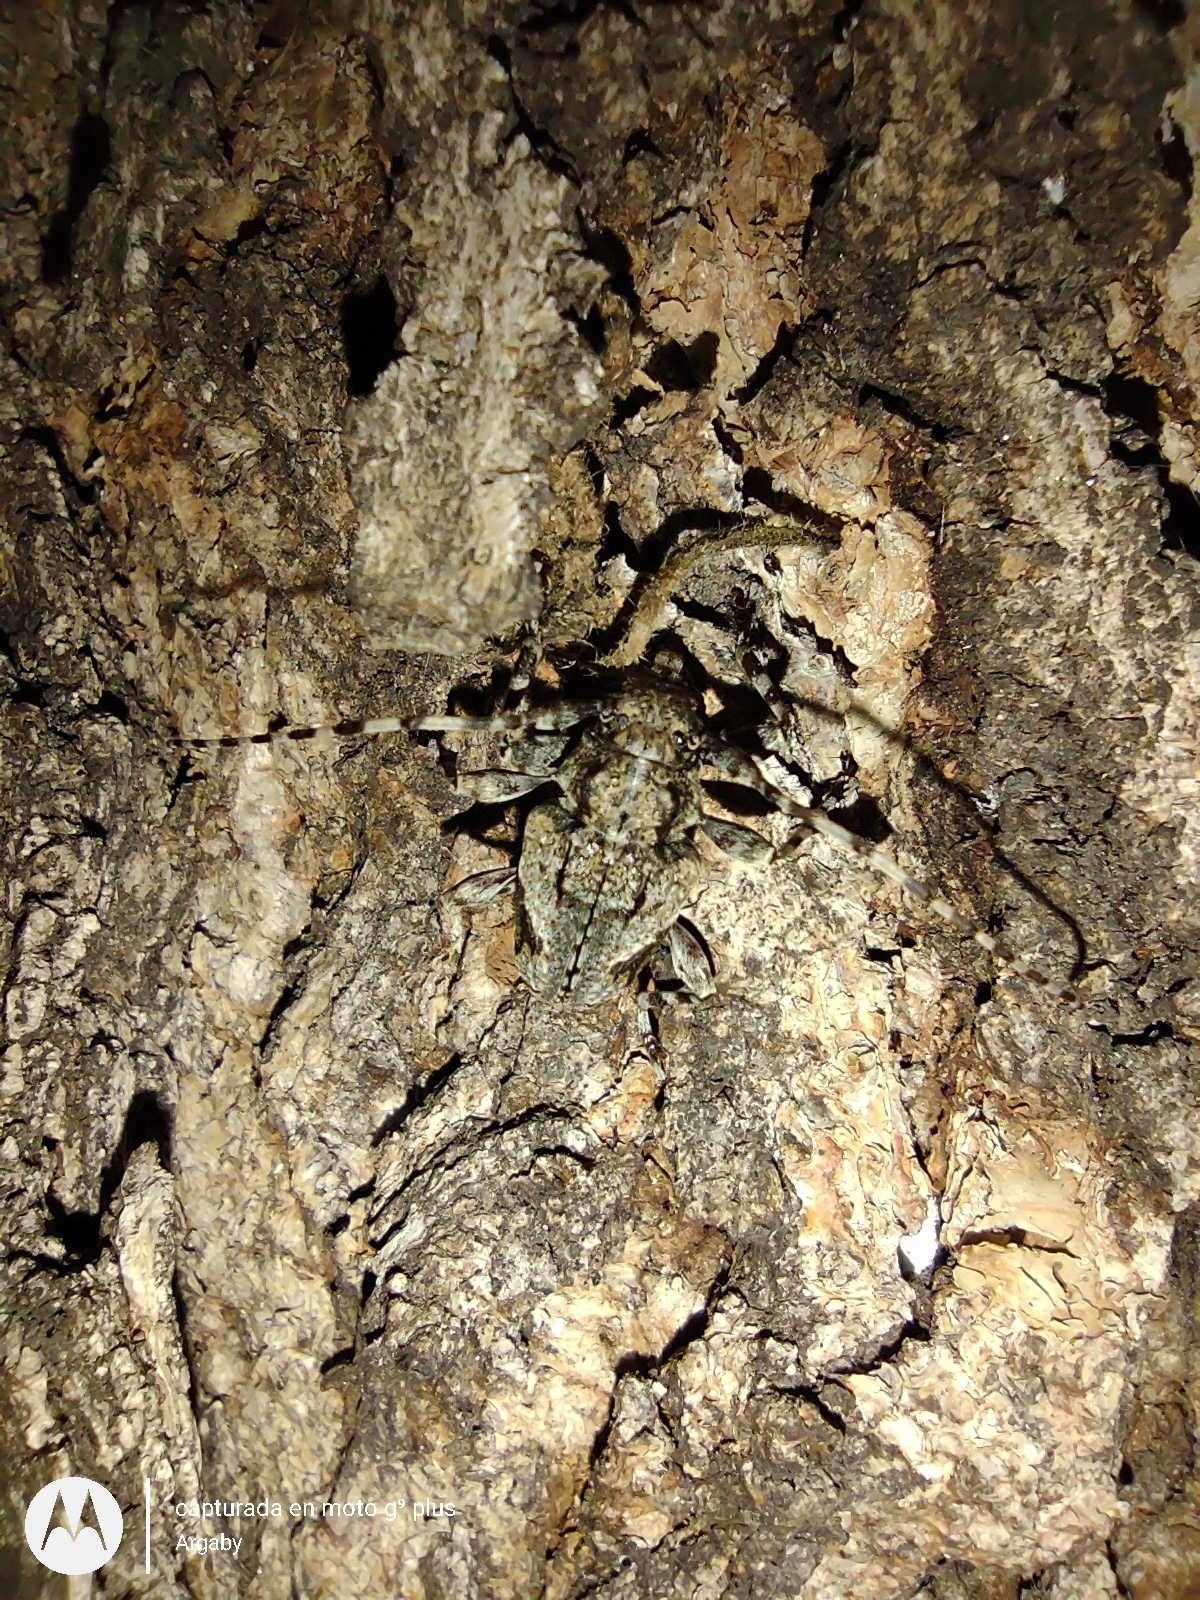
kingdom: Animalia
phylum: Arthropoda
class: Insecta
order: Coleoptera
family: Cerambycidae
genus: Psapharochrus
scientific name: Psapharochrus jaspideus
